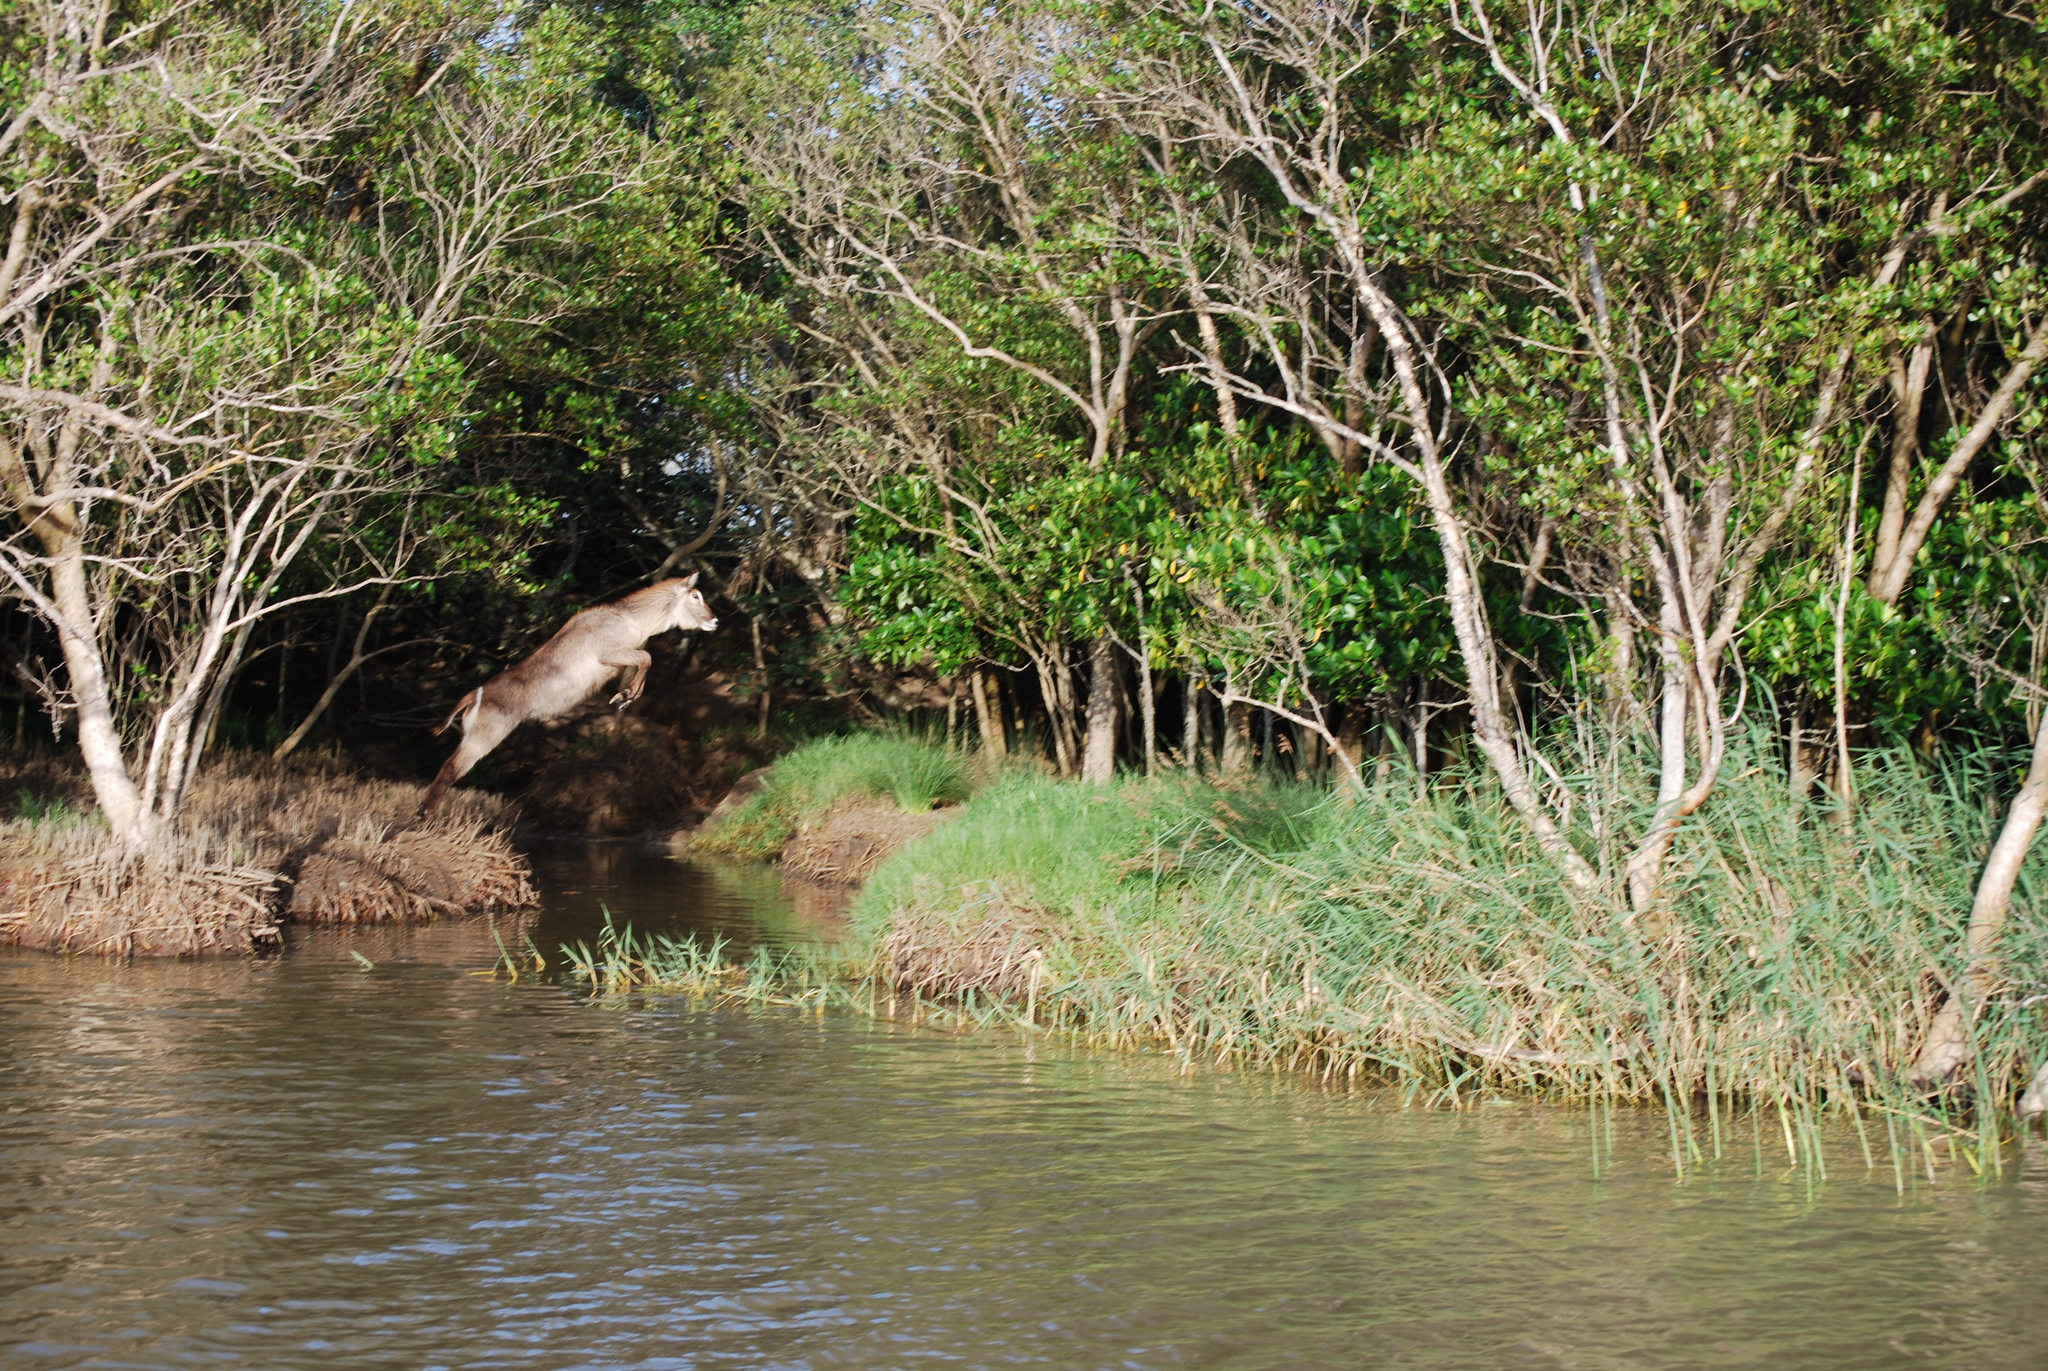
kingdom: Animalia
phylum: Chordata
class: Mammalia
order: Artiodactyla
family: Bovidae
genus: Kobus
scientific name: Kobus ellipsiprymnus
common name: Waterbuck
